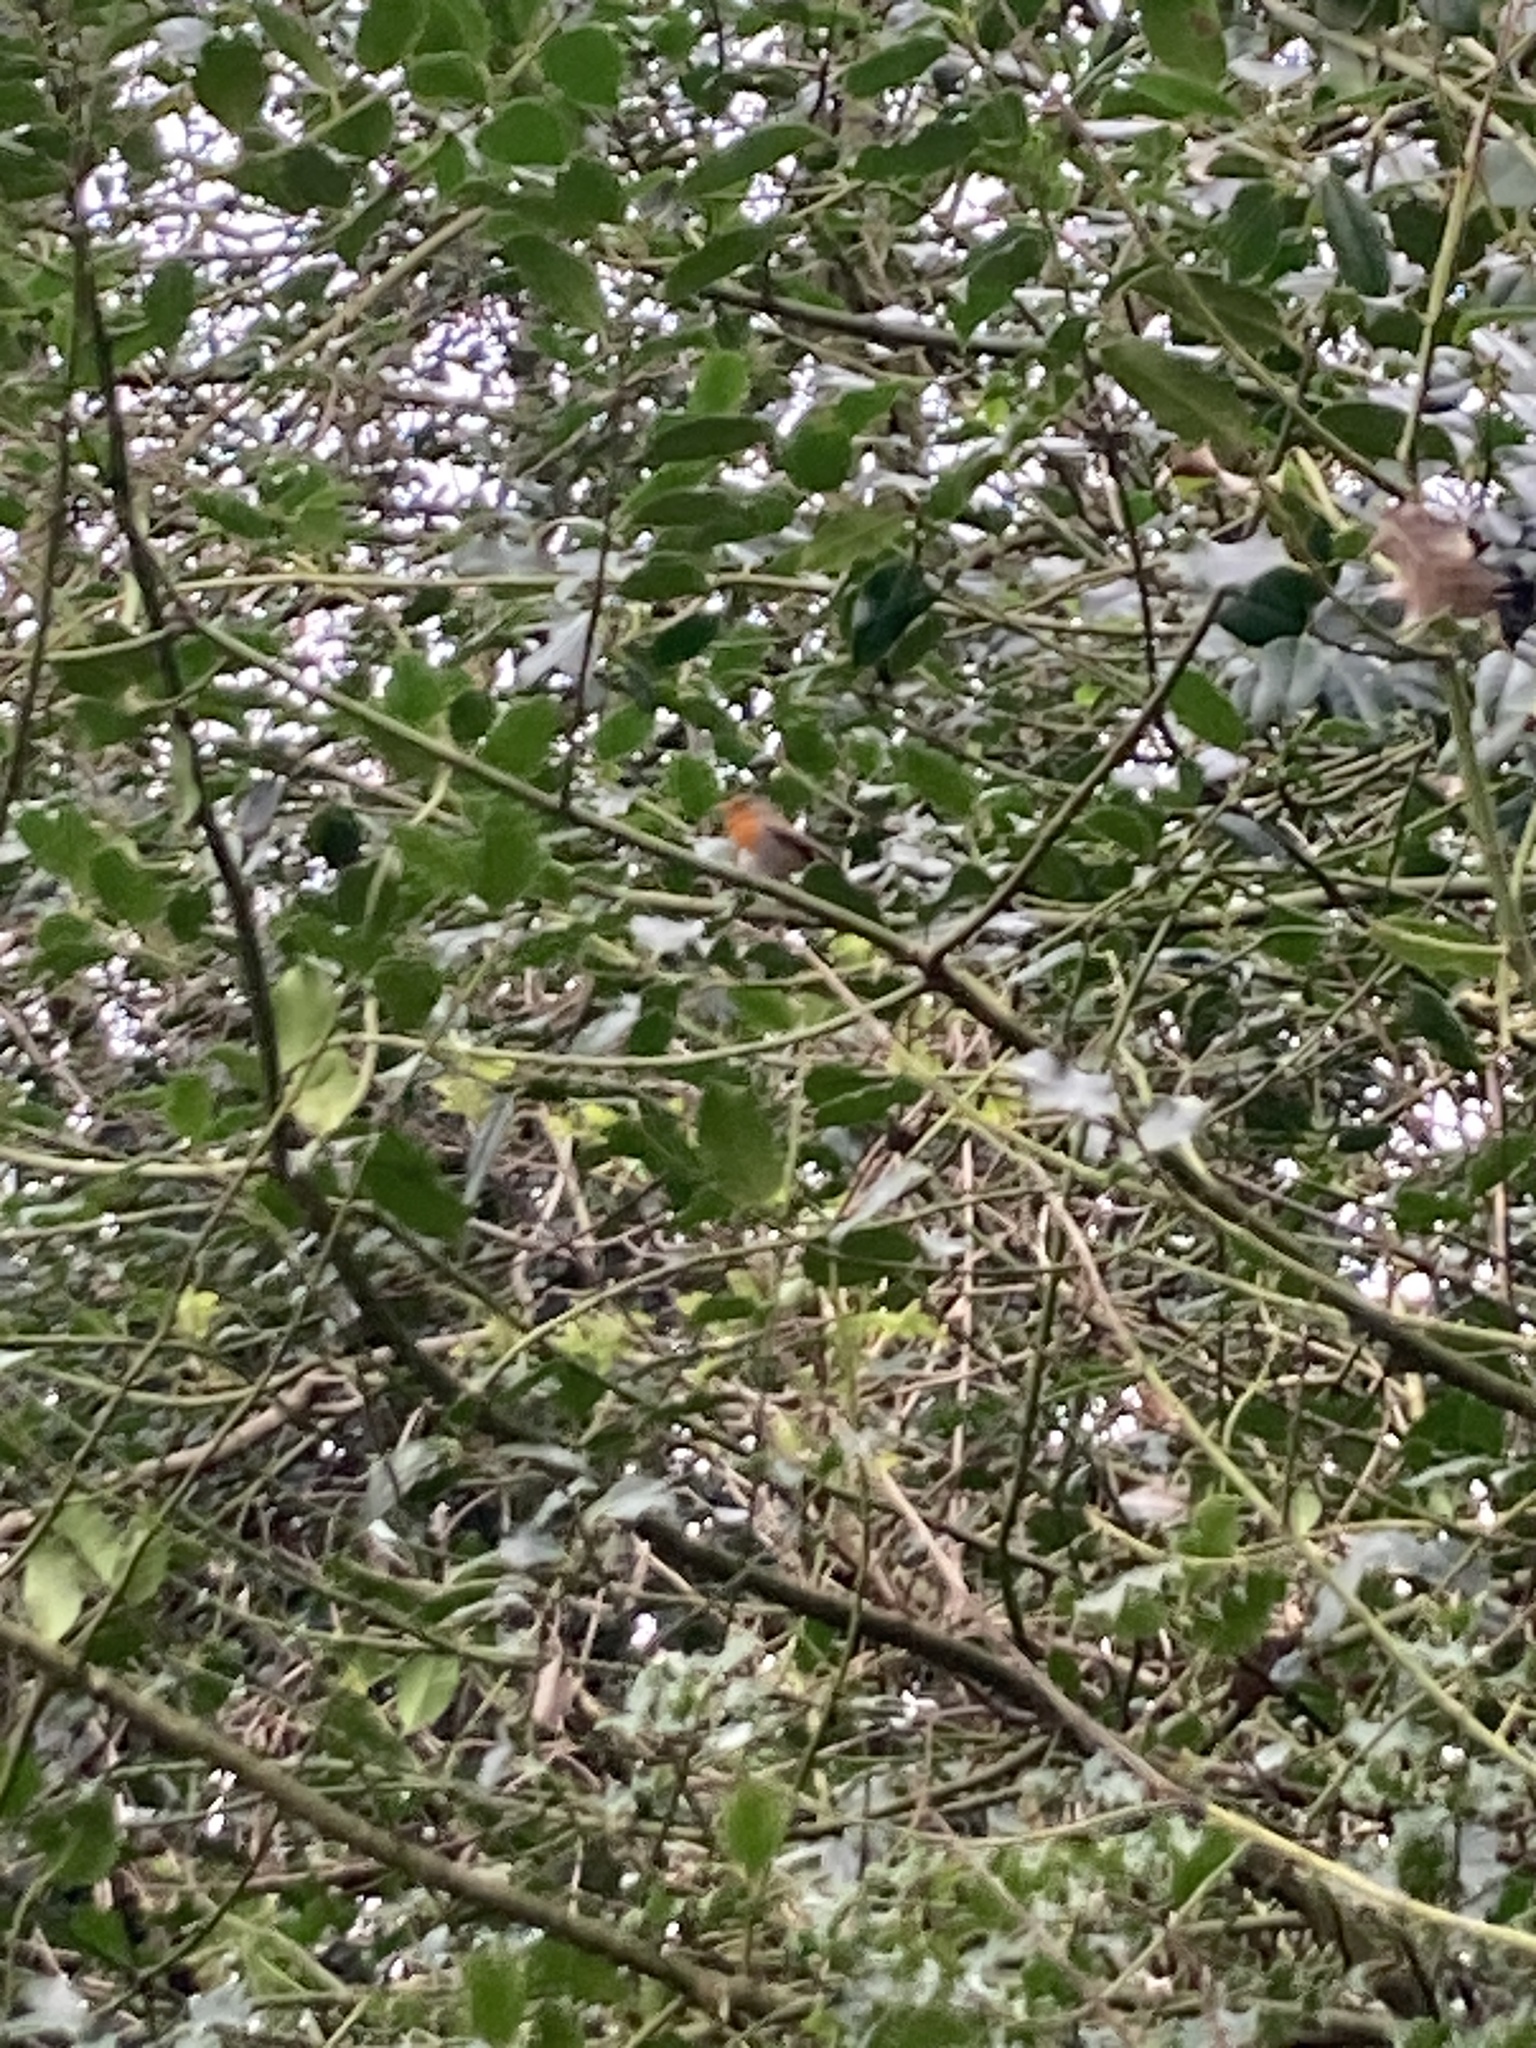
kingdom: Animalia
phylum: Chordata
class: Aves
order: Passeriformes
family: Muscicapidae
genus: Erithacus
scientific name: Erithacus rubecula
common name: European robin
